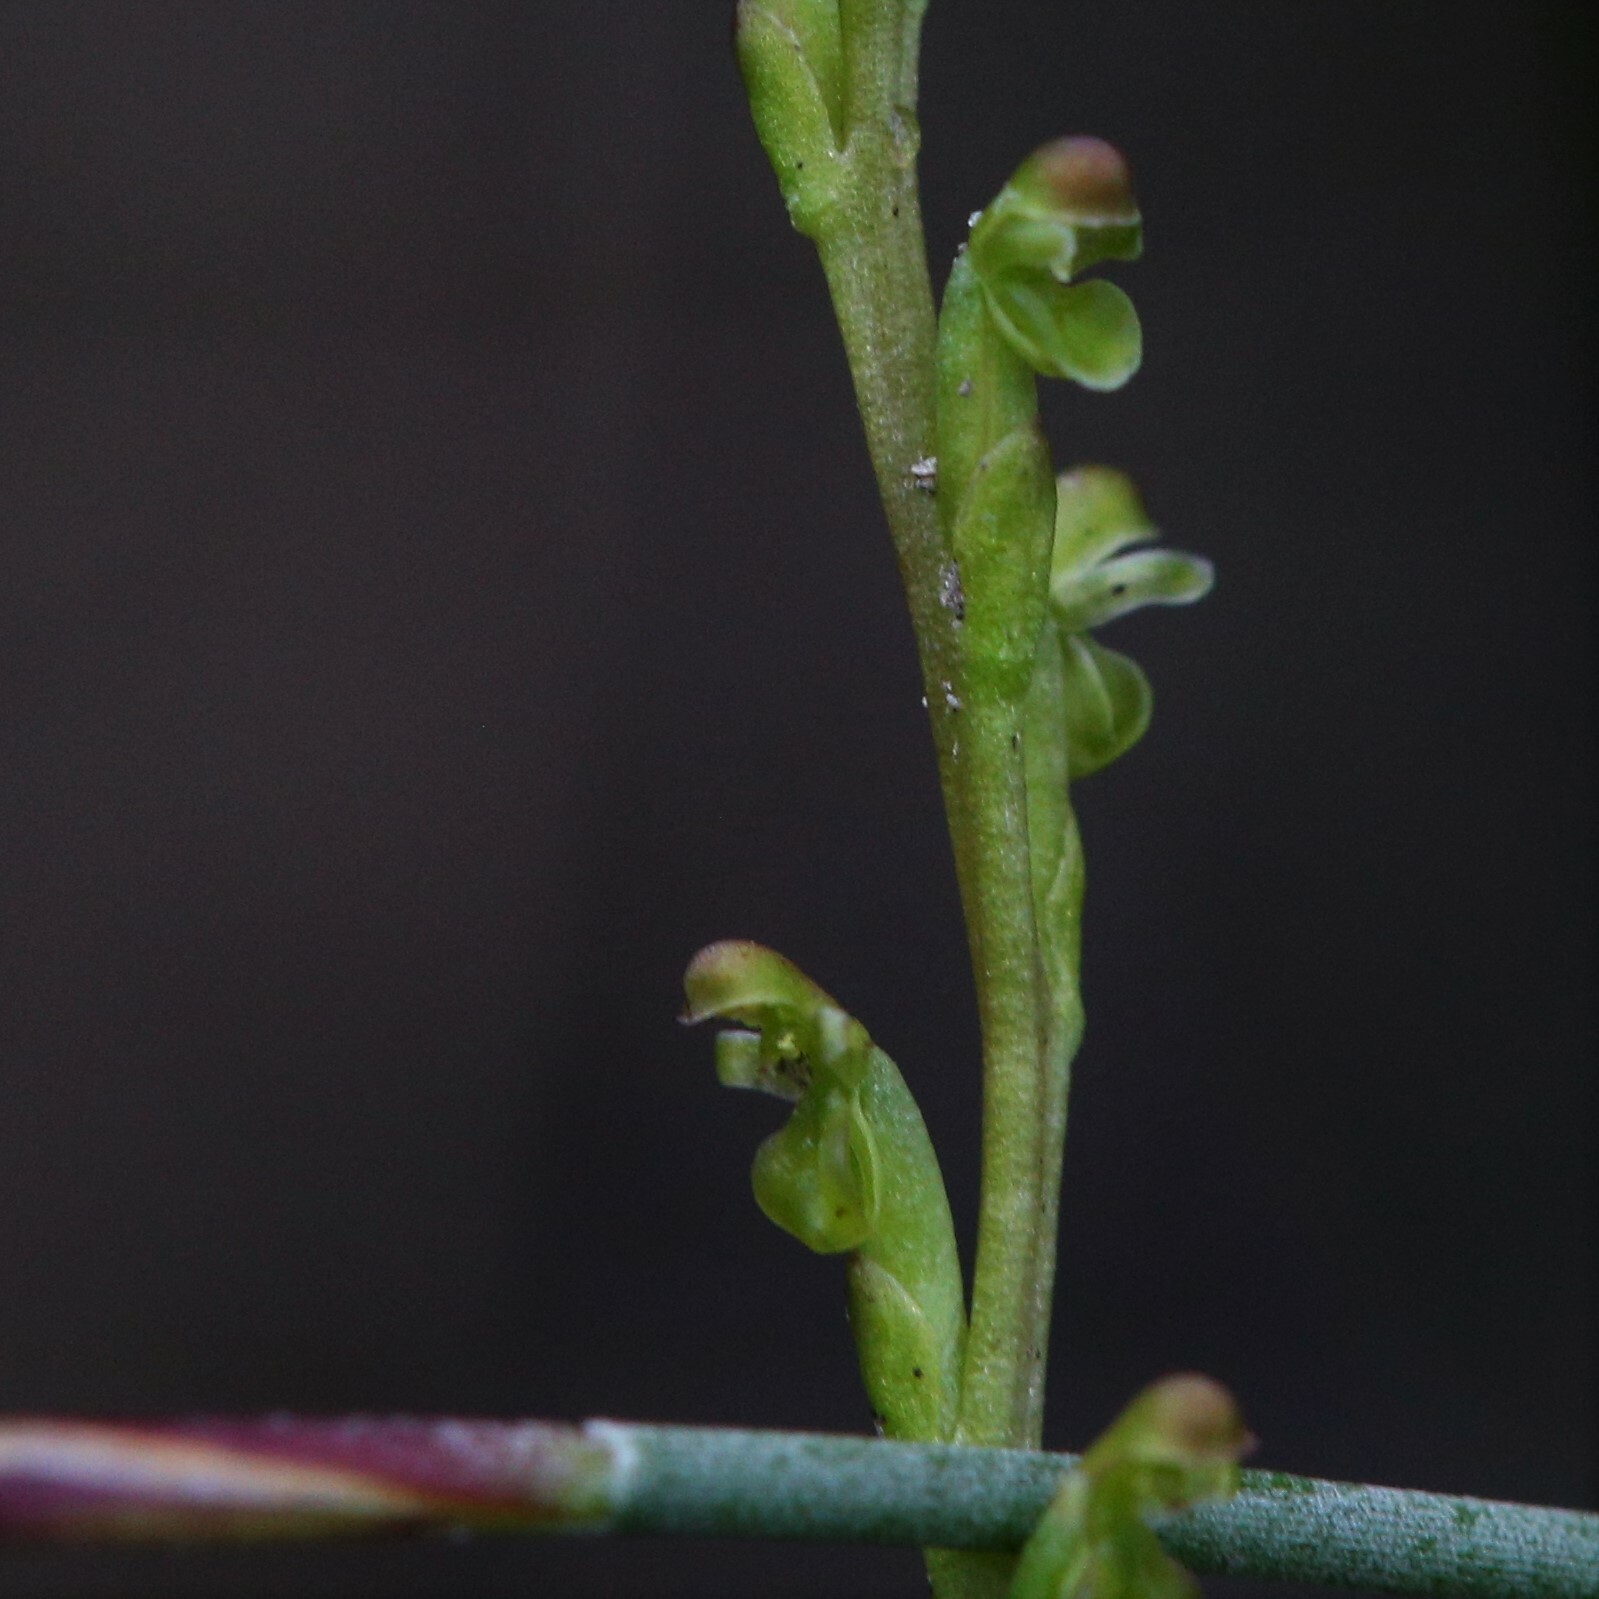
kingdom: Plantae
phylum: Tracheophyta
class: Liliopsida
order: Asparagales
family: Orchidaceae
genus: Microtis
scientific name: Microtis orbicularis
